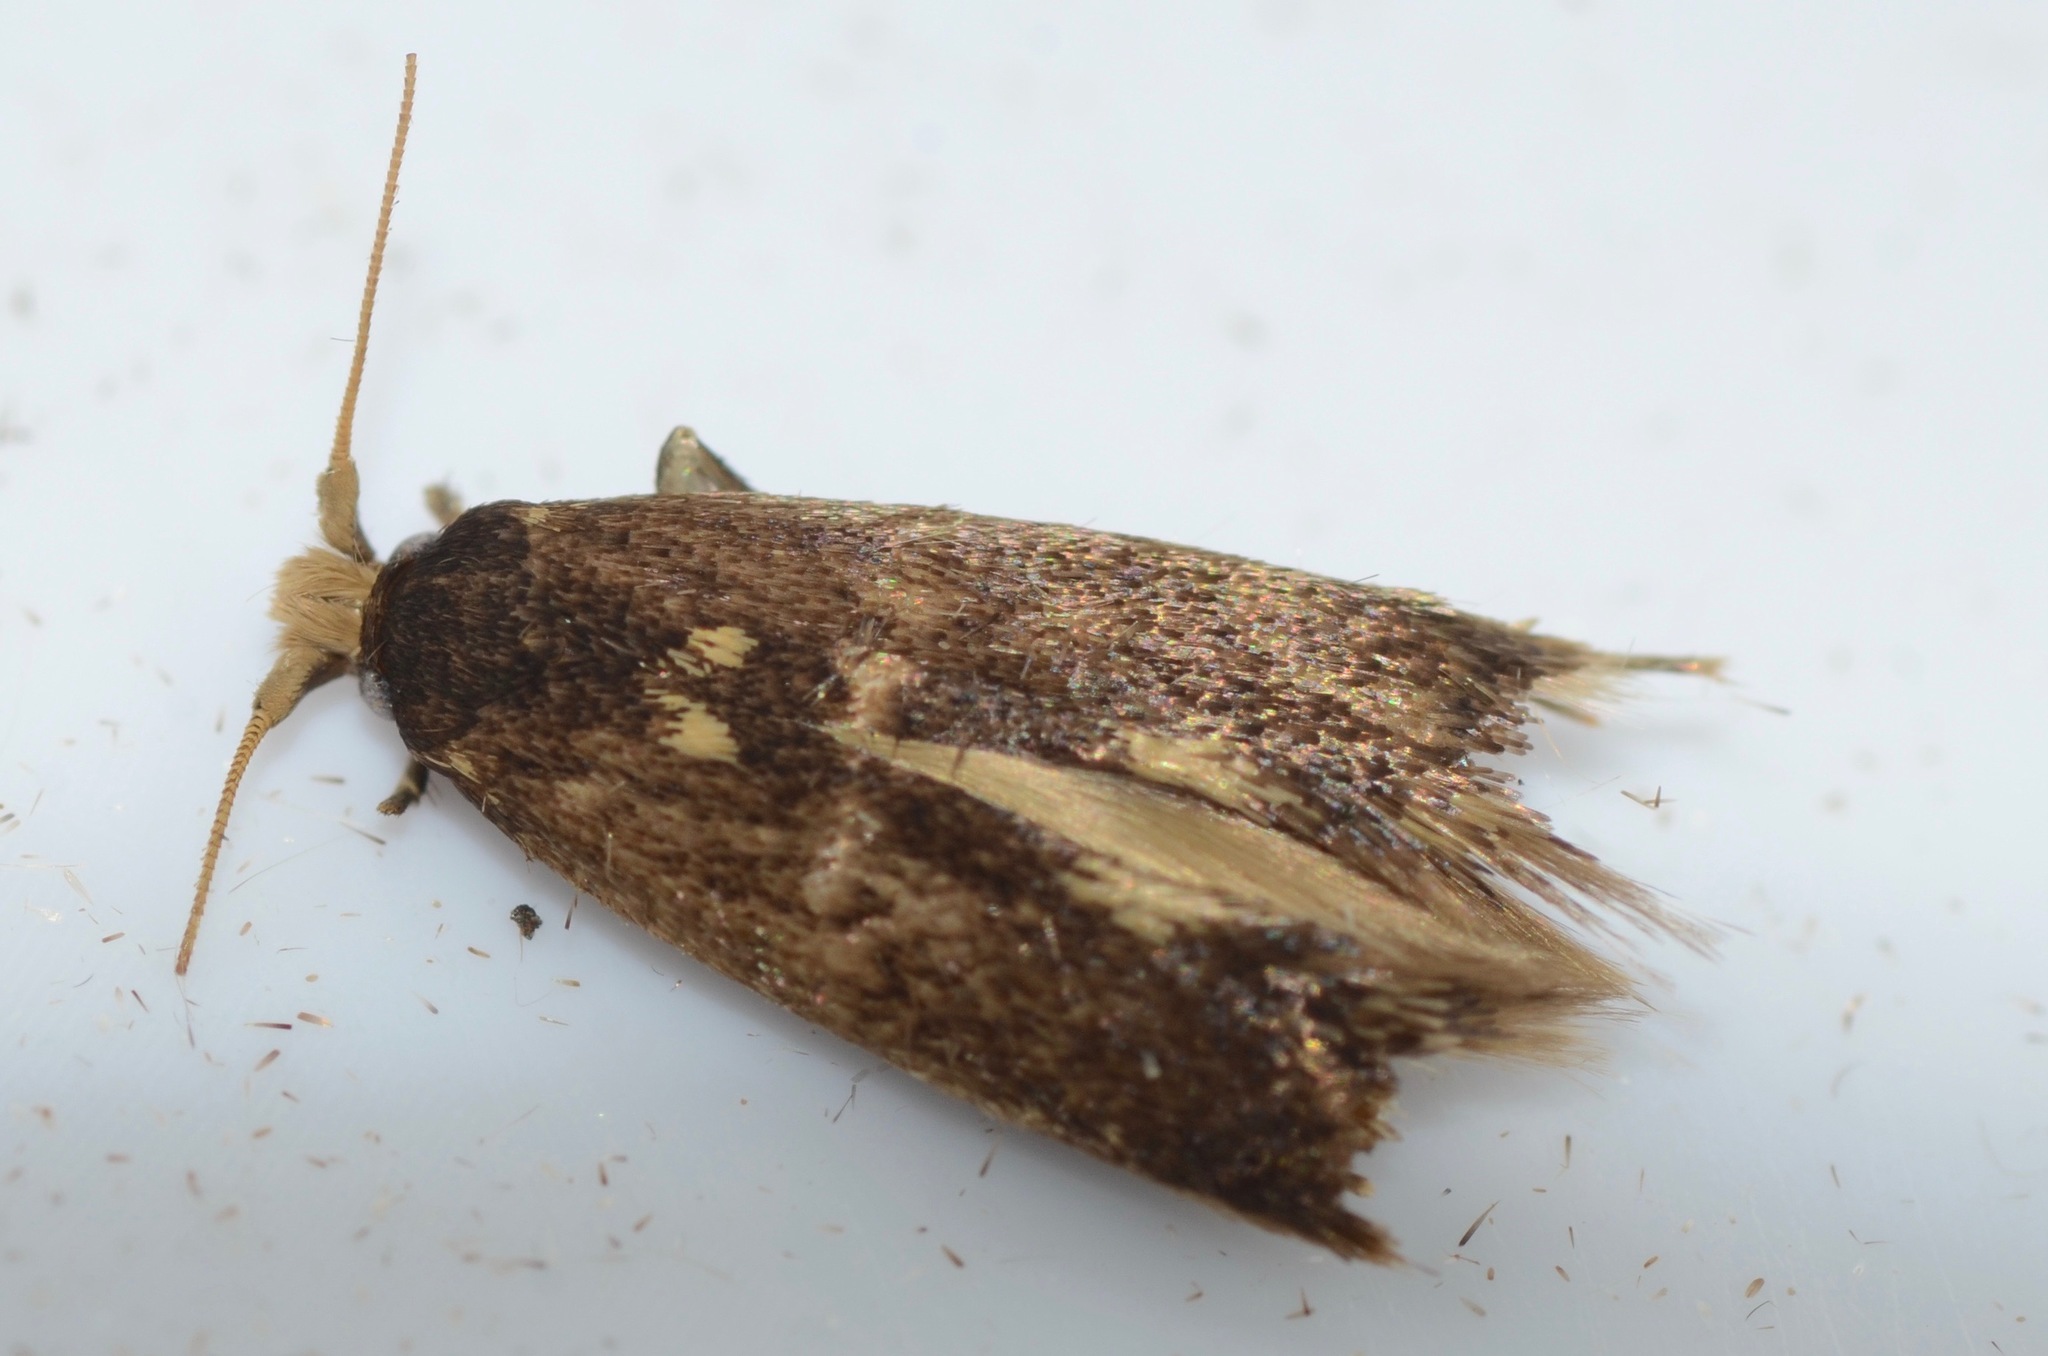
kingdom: Animalia
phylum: Arthropoda
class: Insecta
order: Lepidoptera
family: Tineidae
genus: Opogona
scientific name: Opogona omoscopa
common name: Moth
